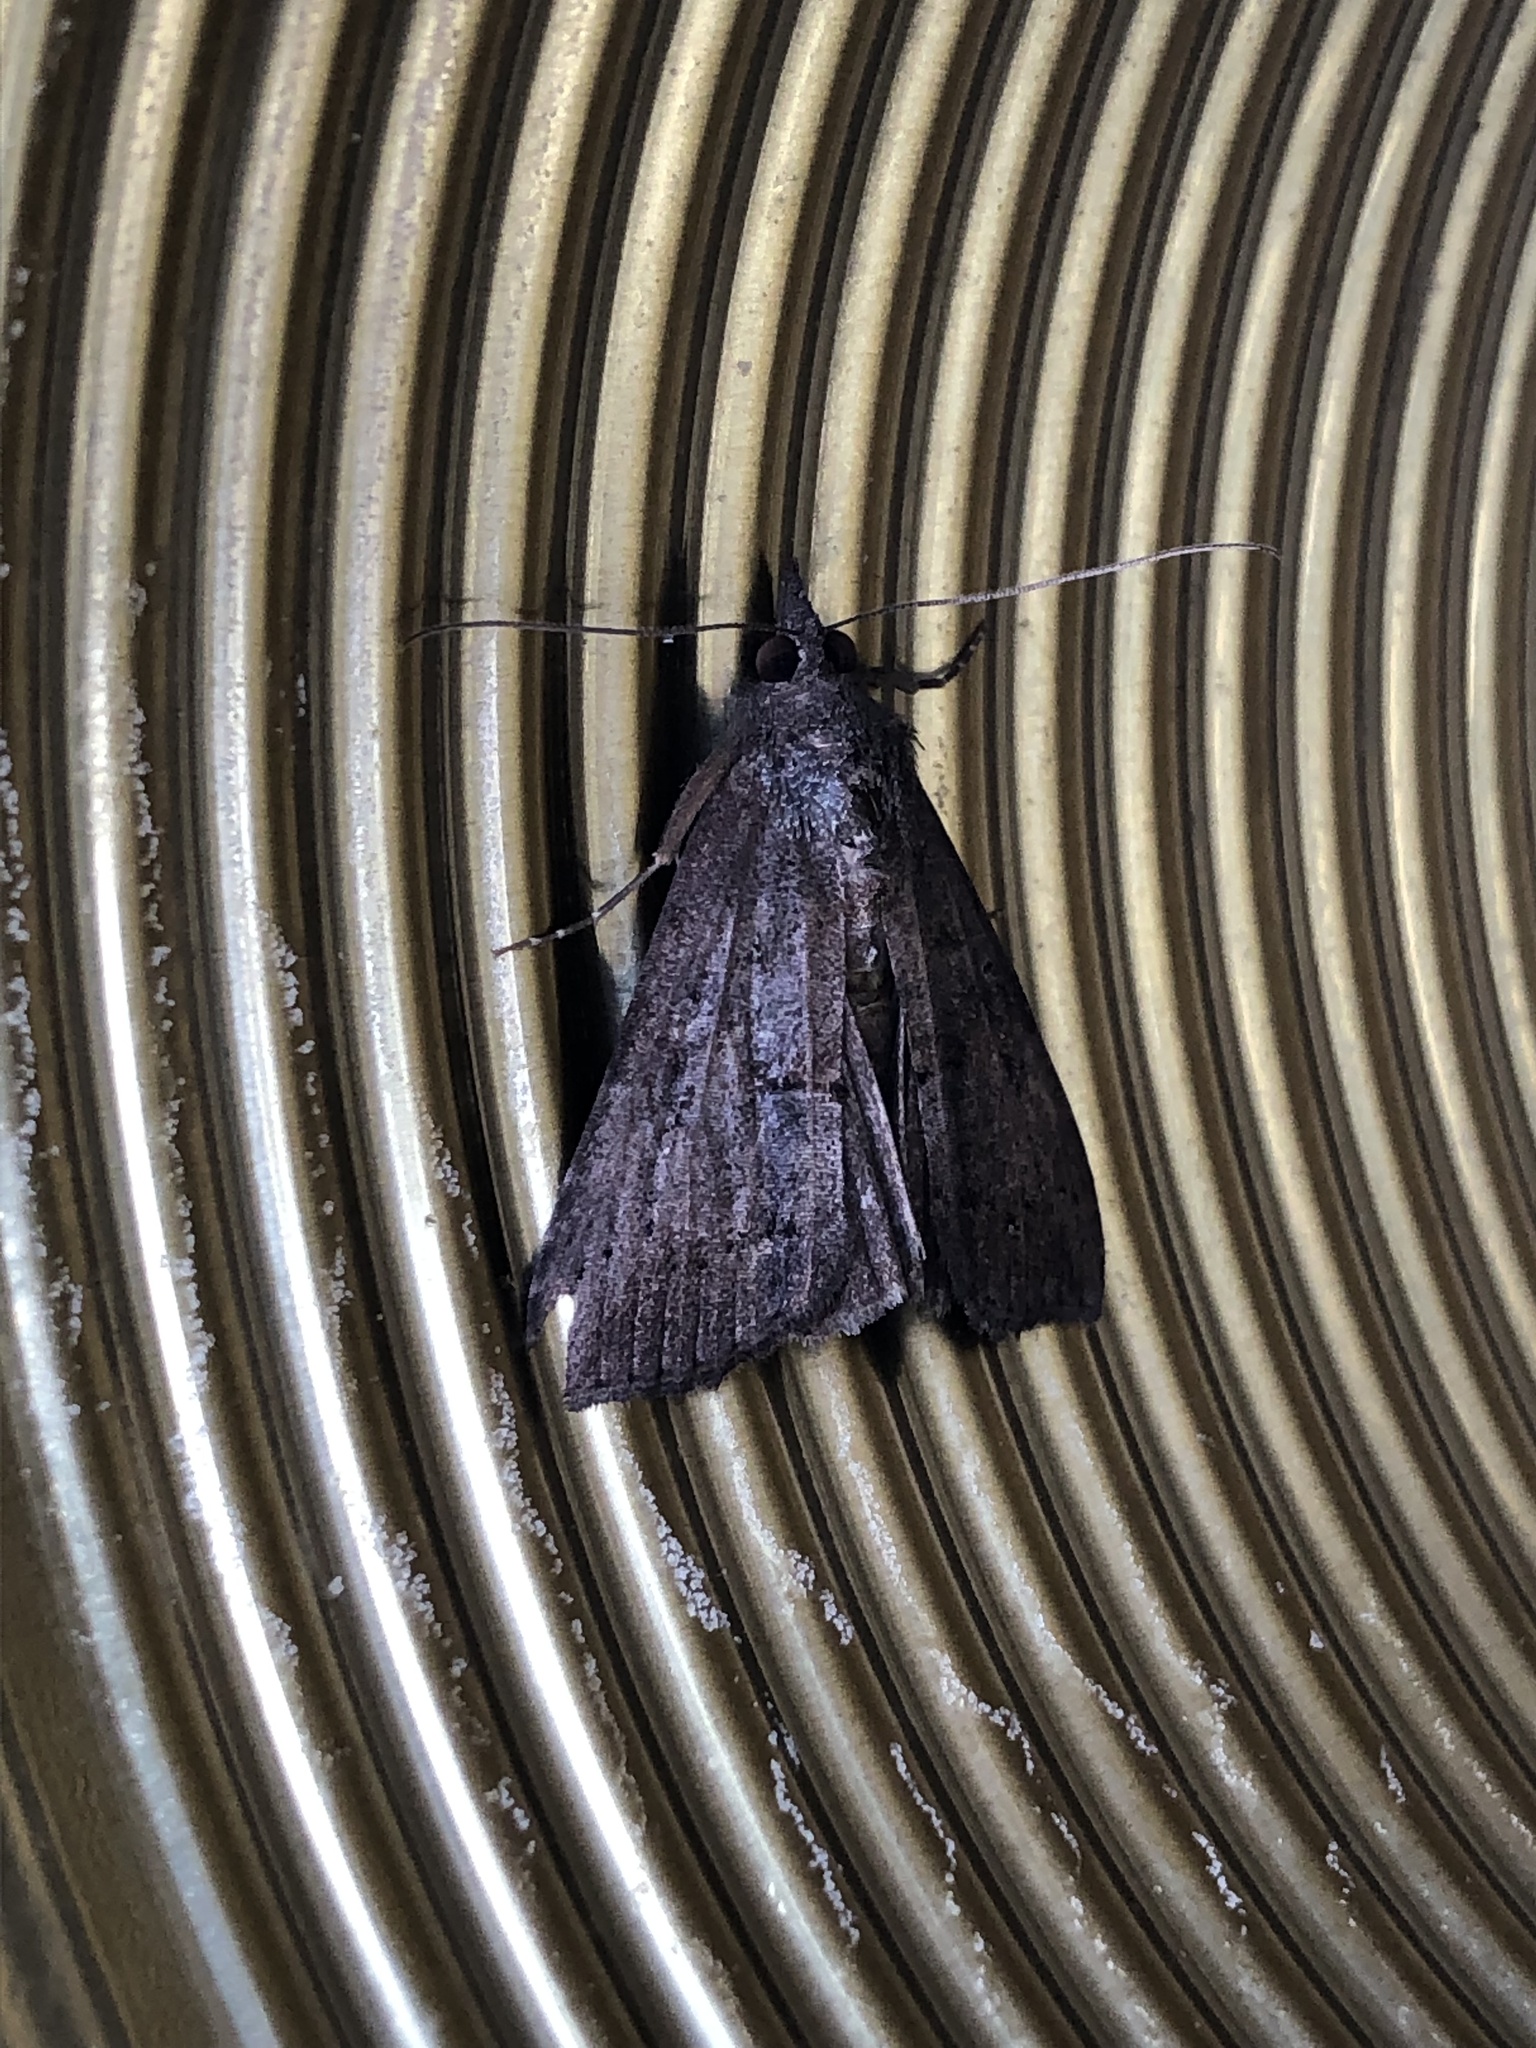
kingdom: Animalia
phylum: Arthropoda
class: Insecta
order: Lepidoptera
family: Erebidae
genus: Hypena
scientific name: Hypena scabra
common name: Green cloverworm
